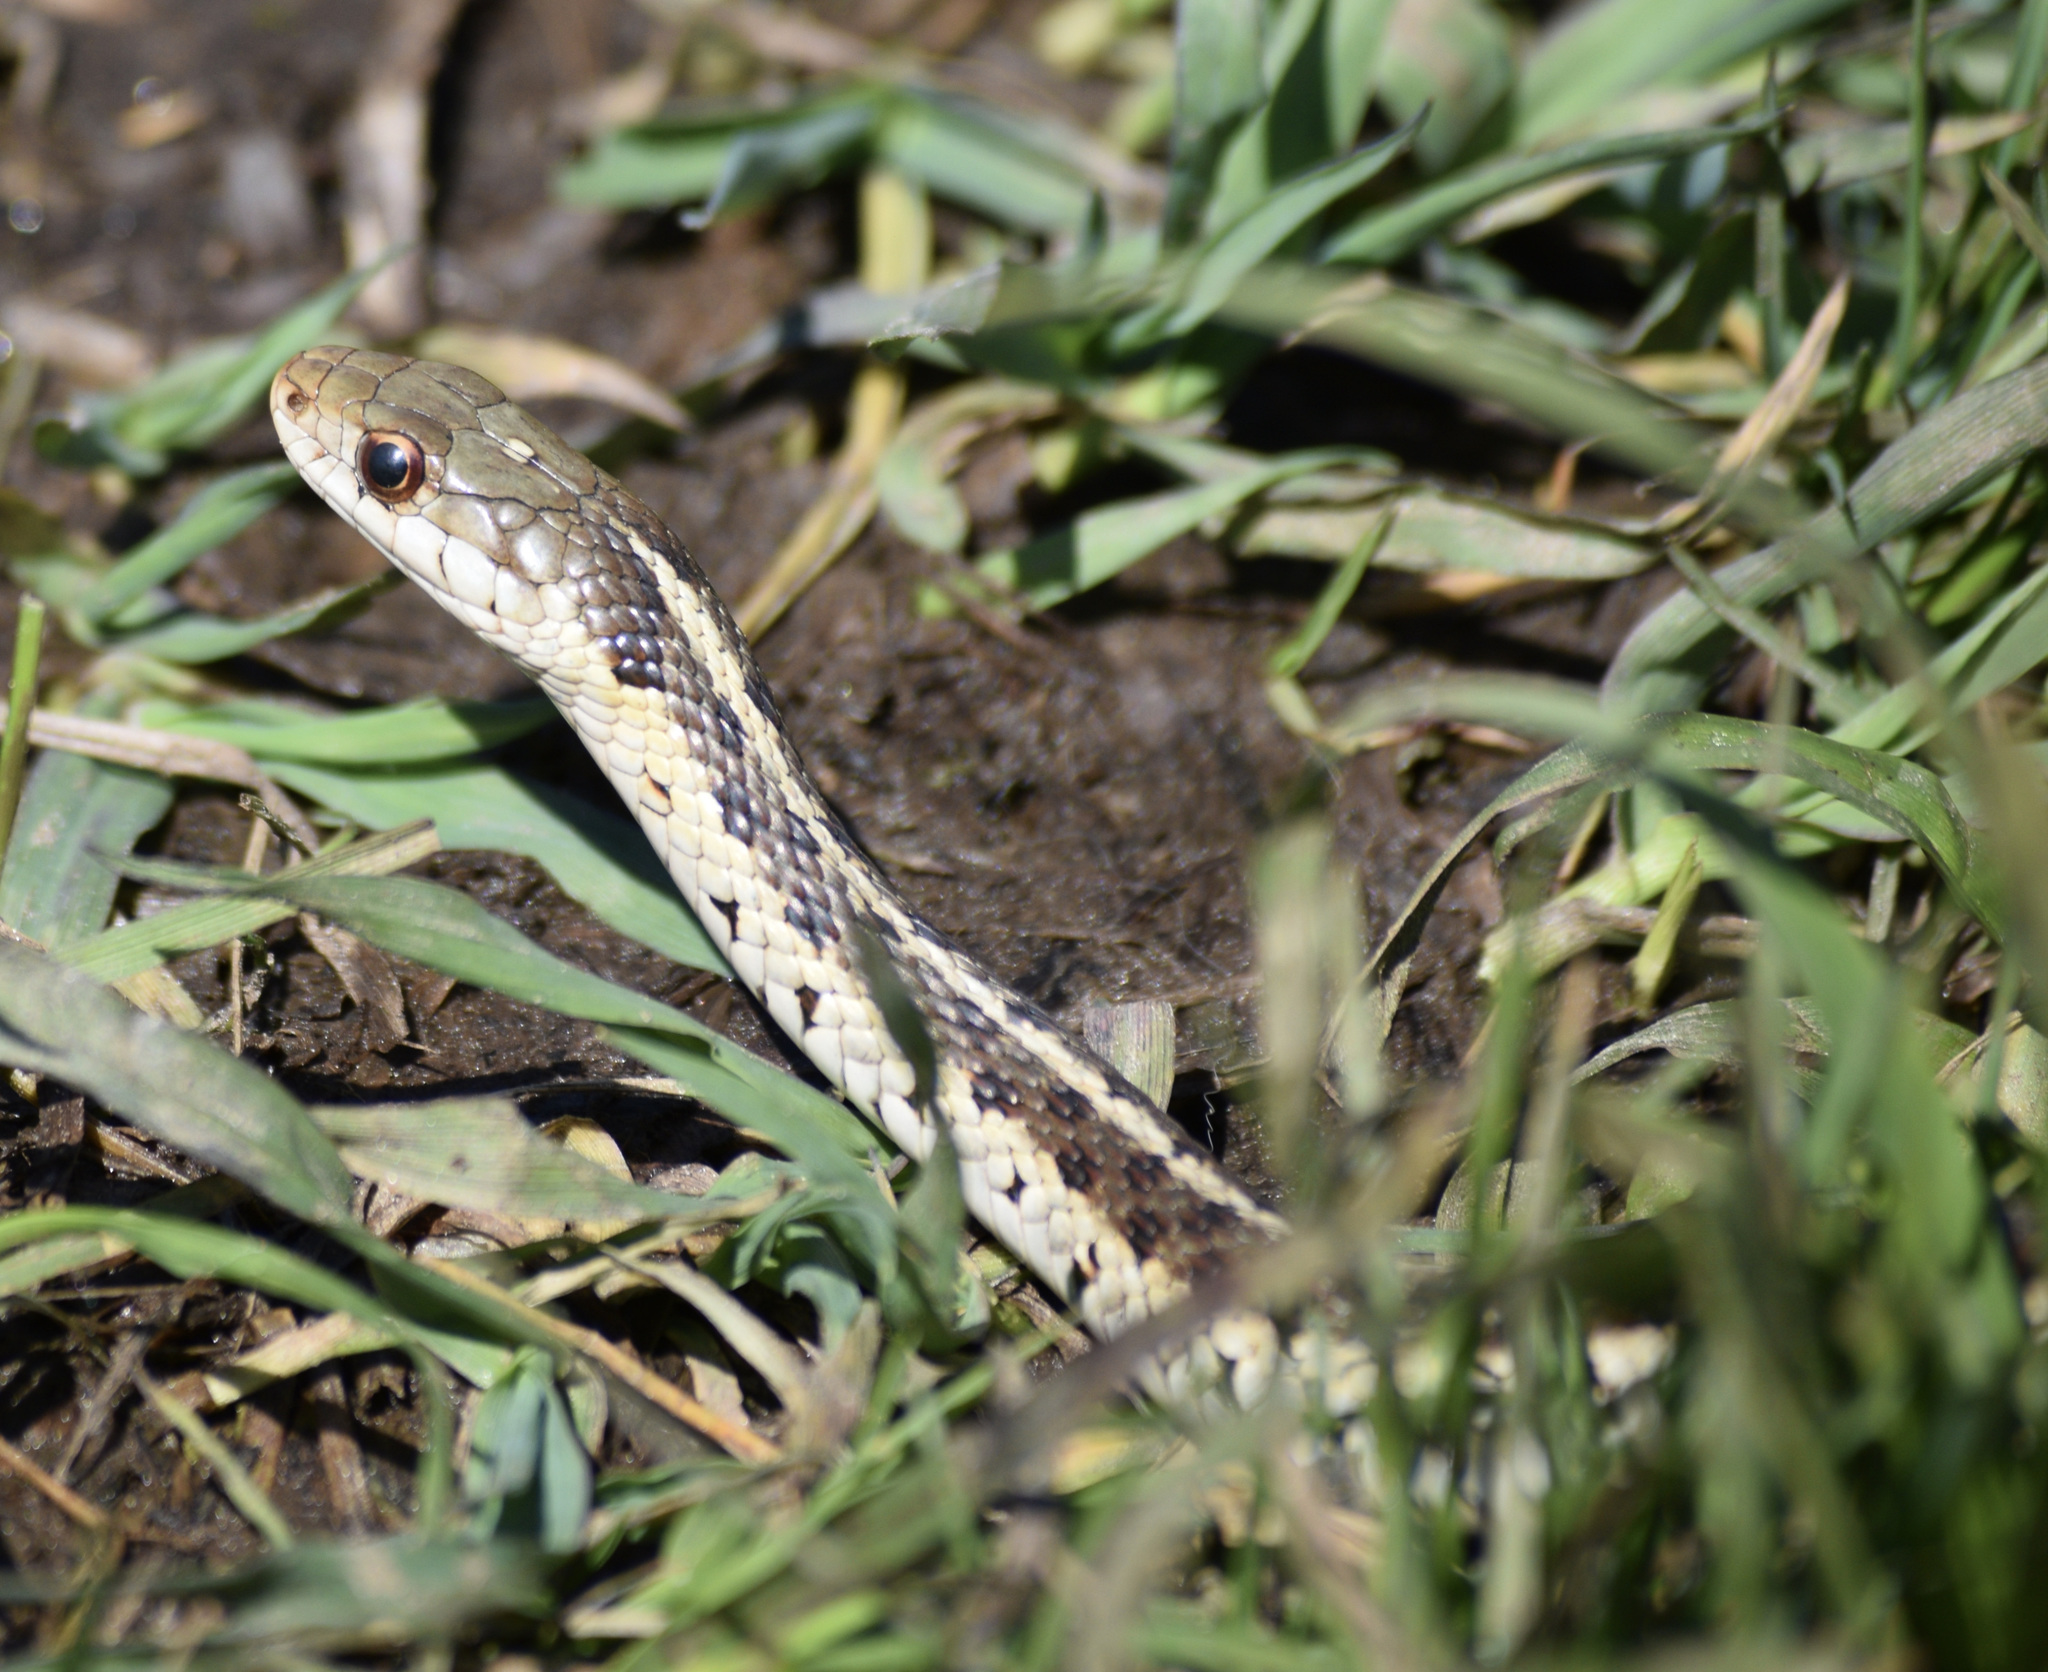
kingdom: Animalia
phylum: Chordata
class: Squamata
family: Colubridae
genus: Thamnophis
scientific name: Thamnophis sirtalis
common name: Common garter snake
